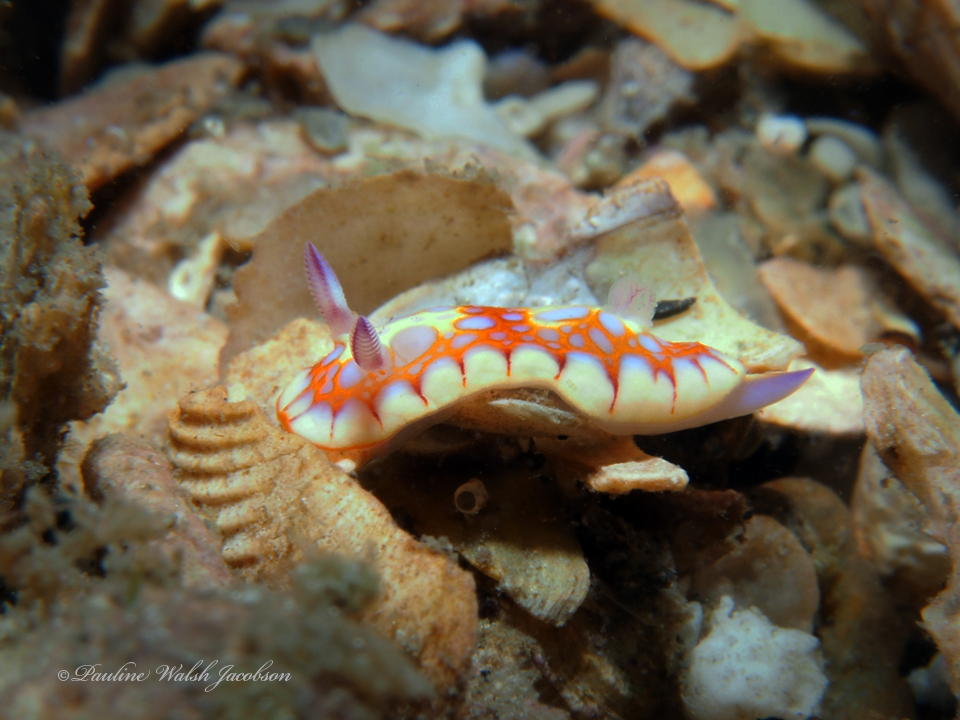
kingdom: Animalia
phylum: Mollusca
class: Gastropoda
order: Nudibranchia
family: Chromodorididae
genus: Felimida
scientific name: Felimida binza
